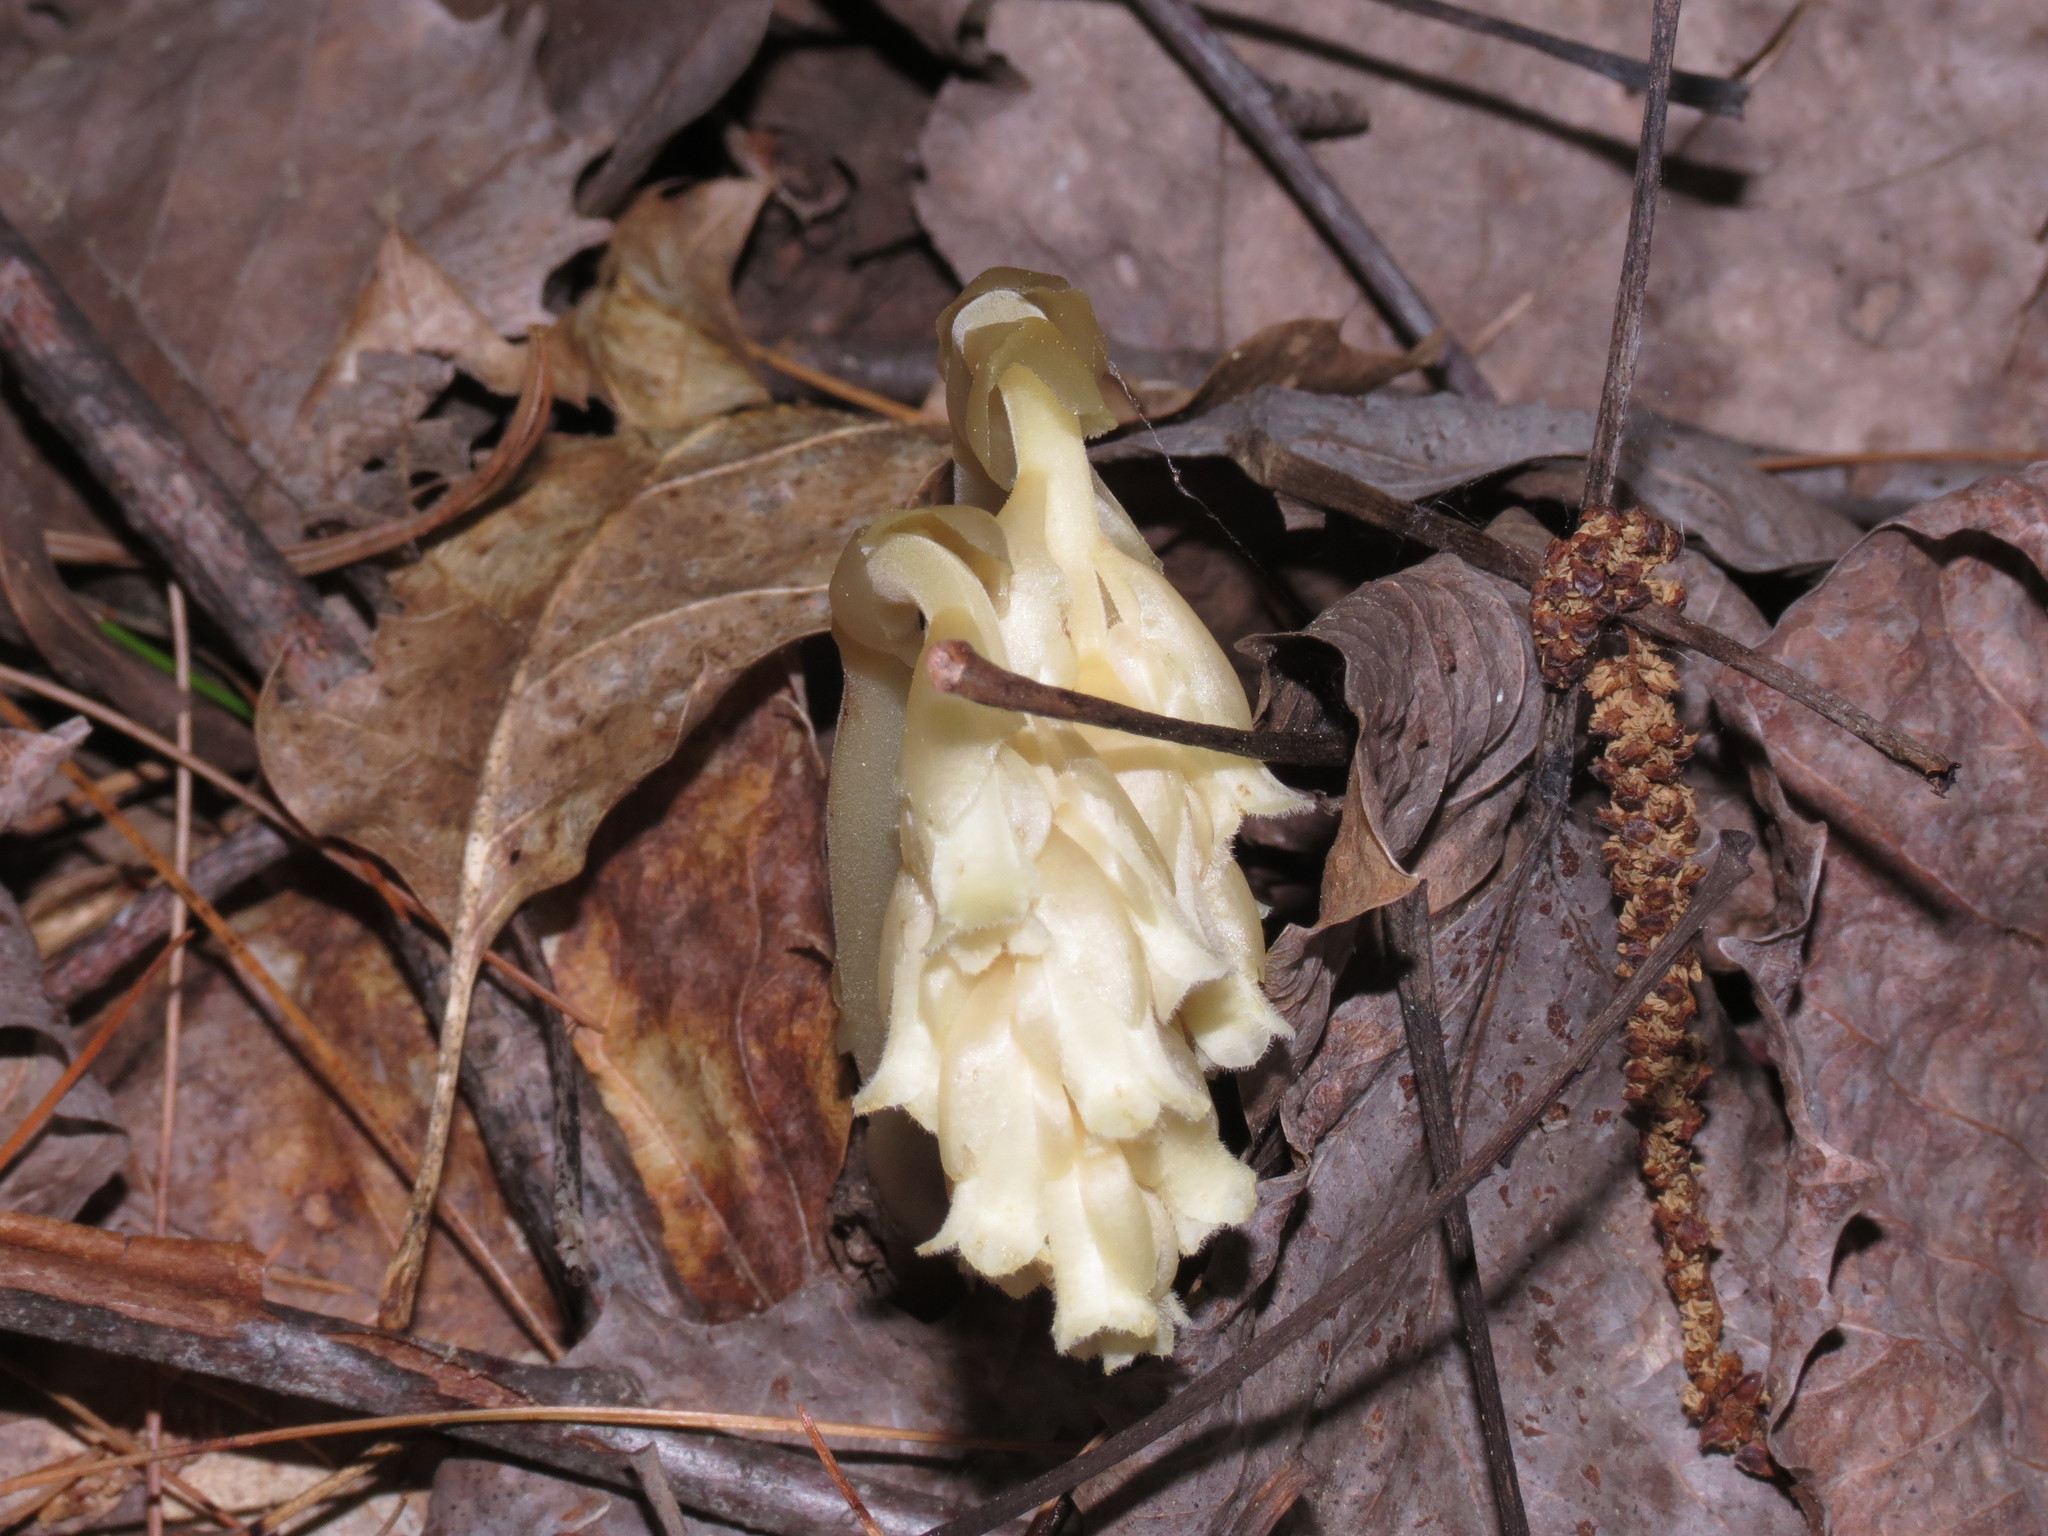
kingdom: Plantae
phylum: Tracheophyta
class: Magnoliopsida
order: Ericales
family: Ericaceae
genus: Hypopitys
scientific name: Hypopitys monotropa
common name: Yellow bird's-nest
